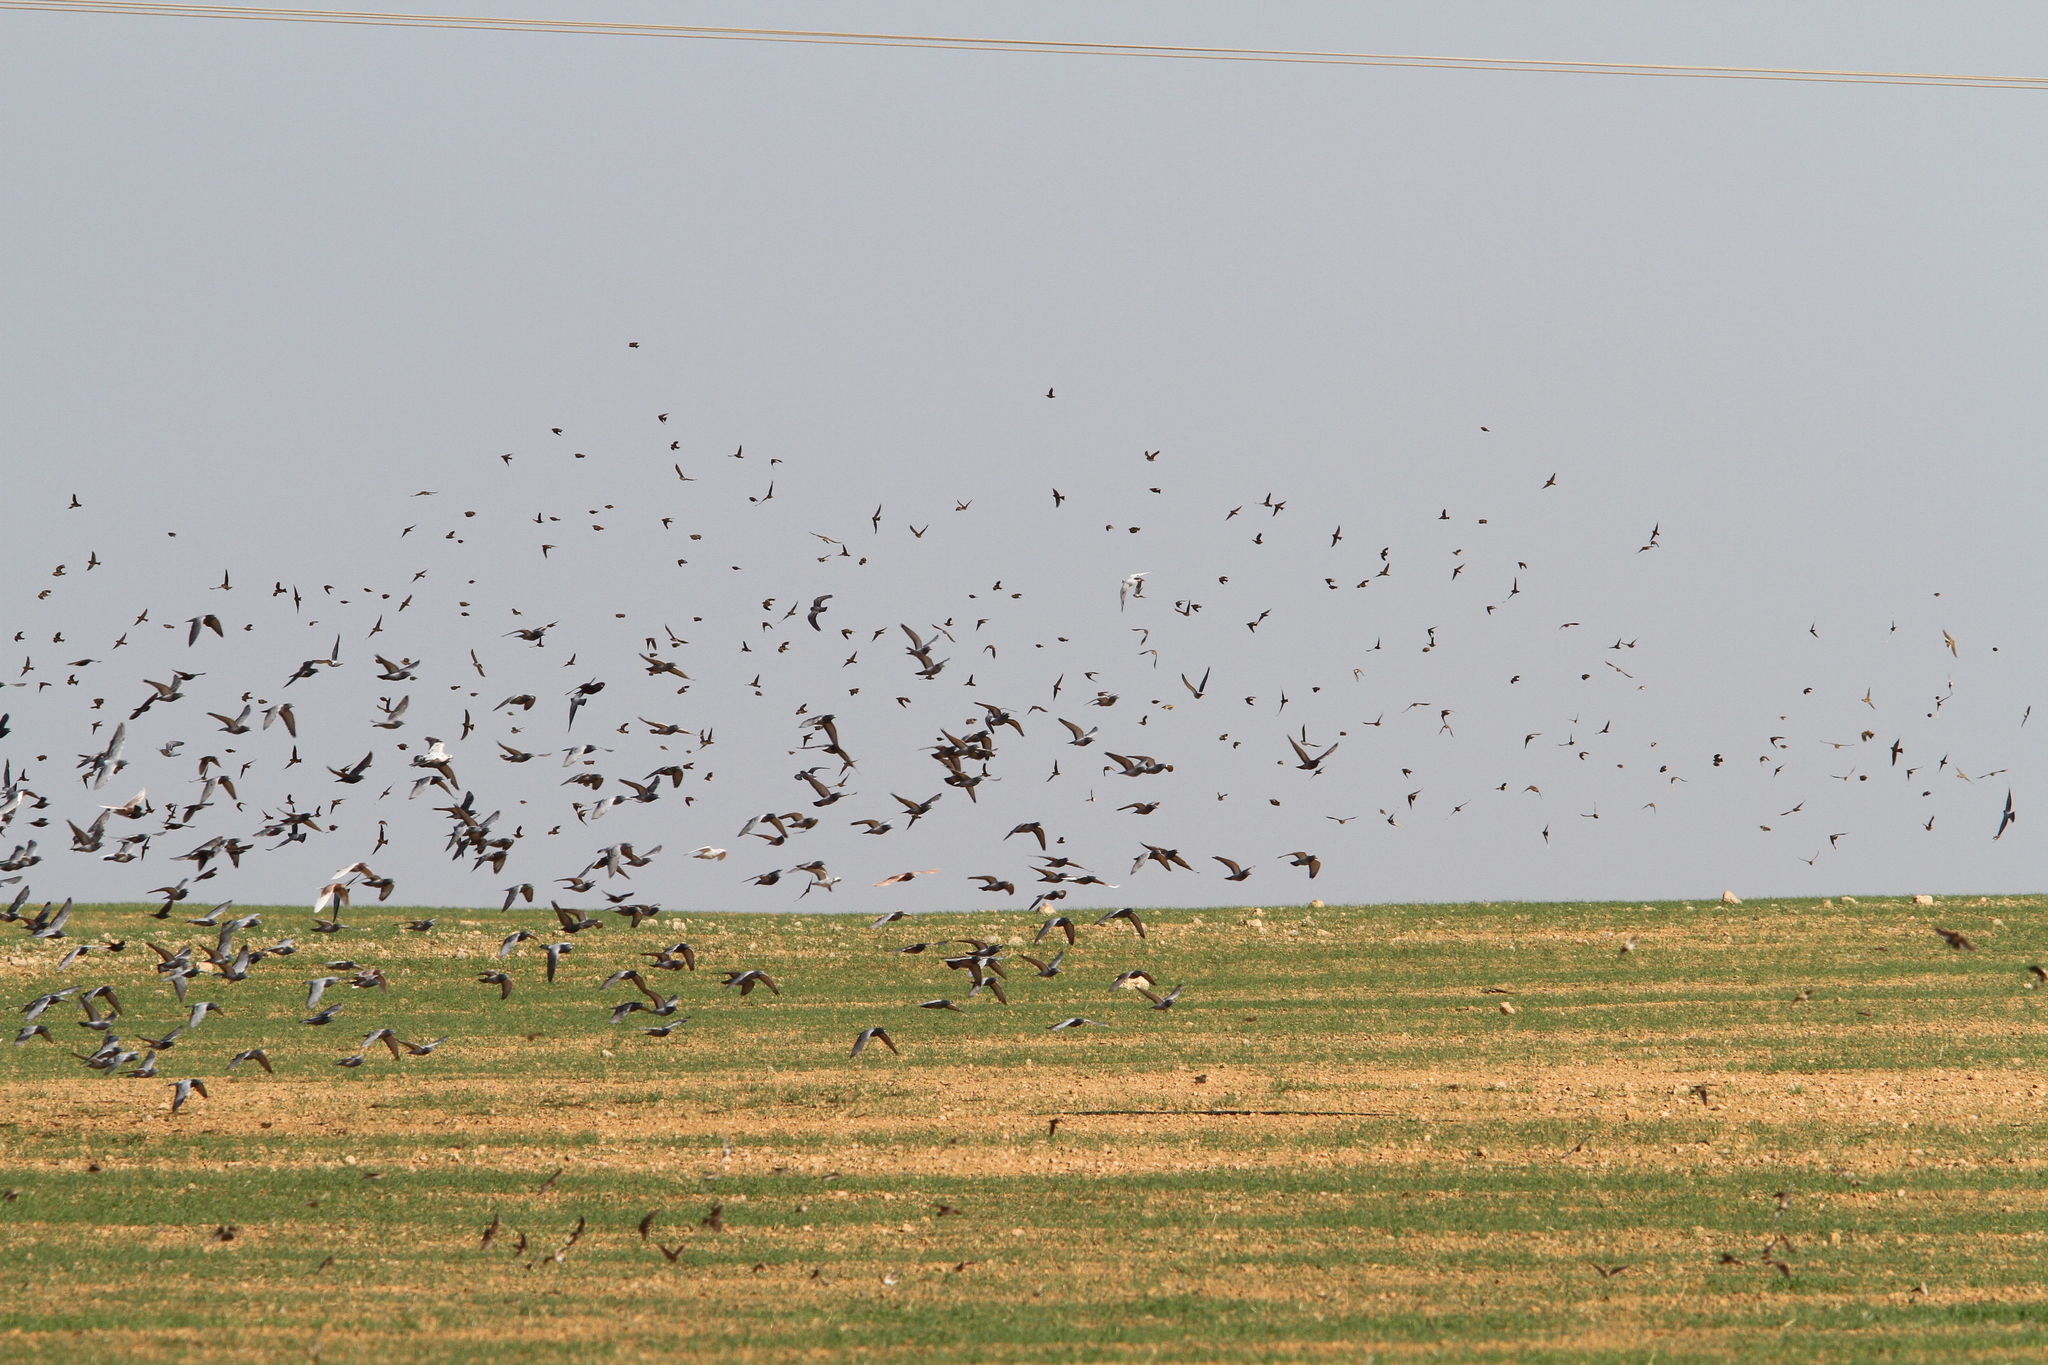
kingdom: Animalia
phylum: Chordata
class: Aves
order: Columbiformes
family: Columbidae
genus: Columba
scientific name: Columba livia
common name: Rock pigeon
